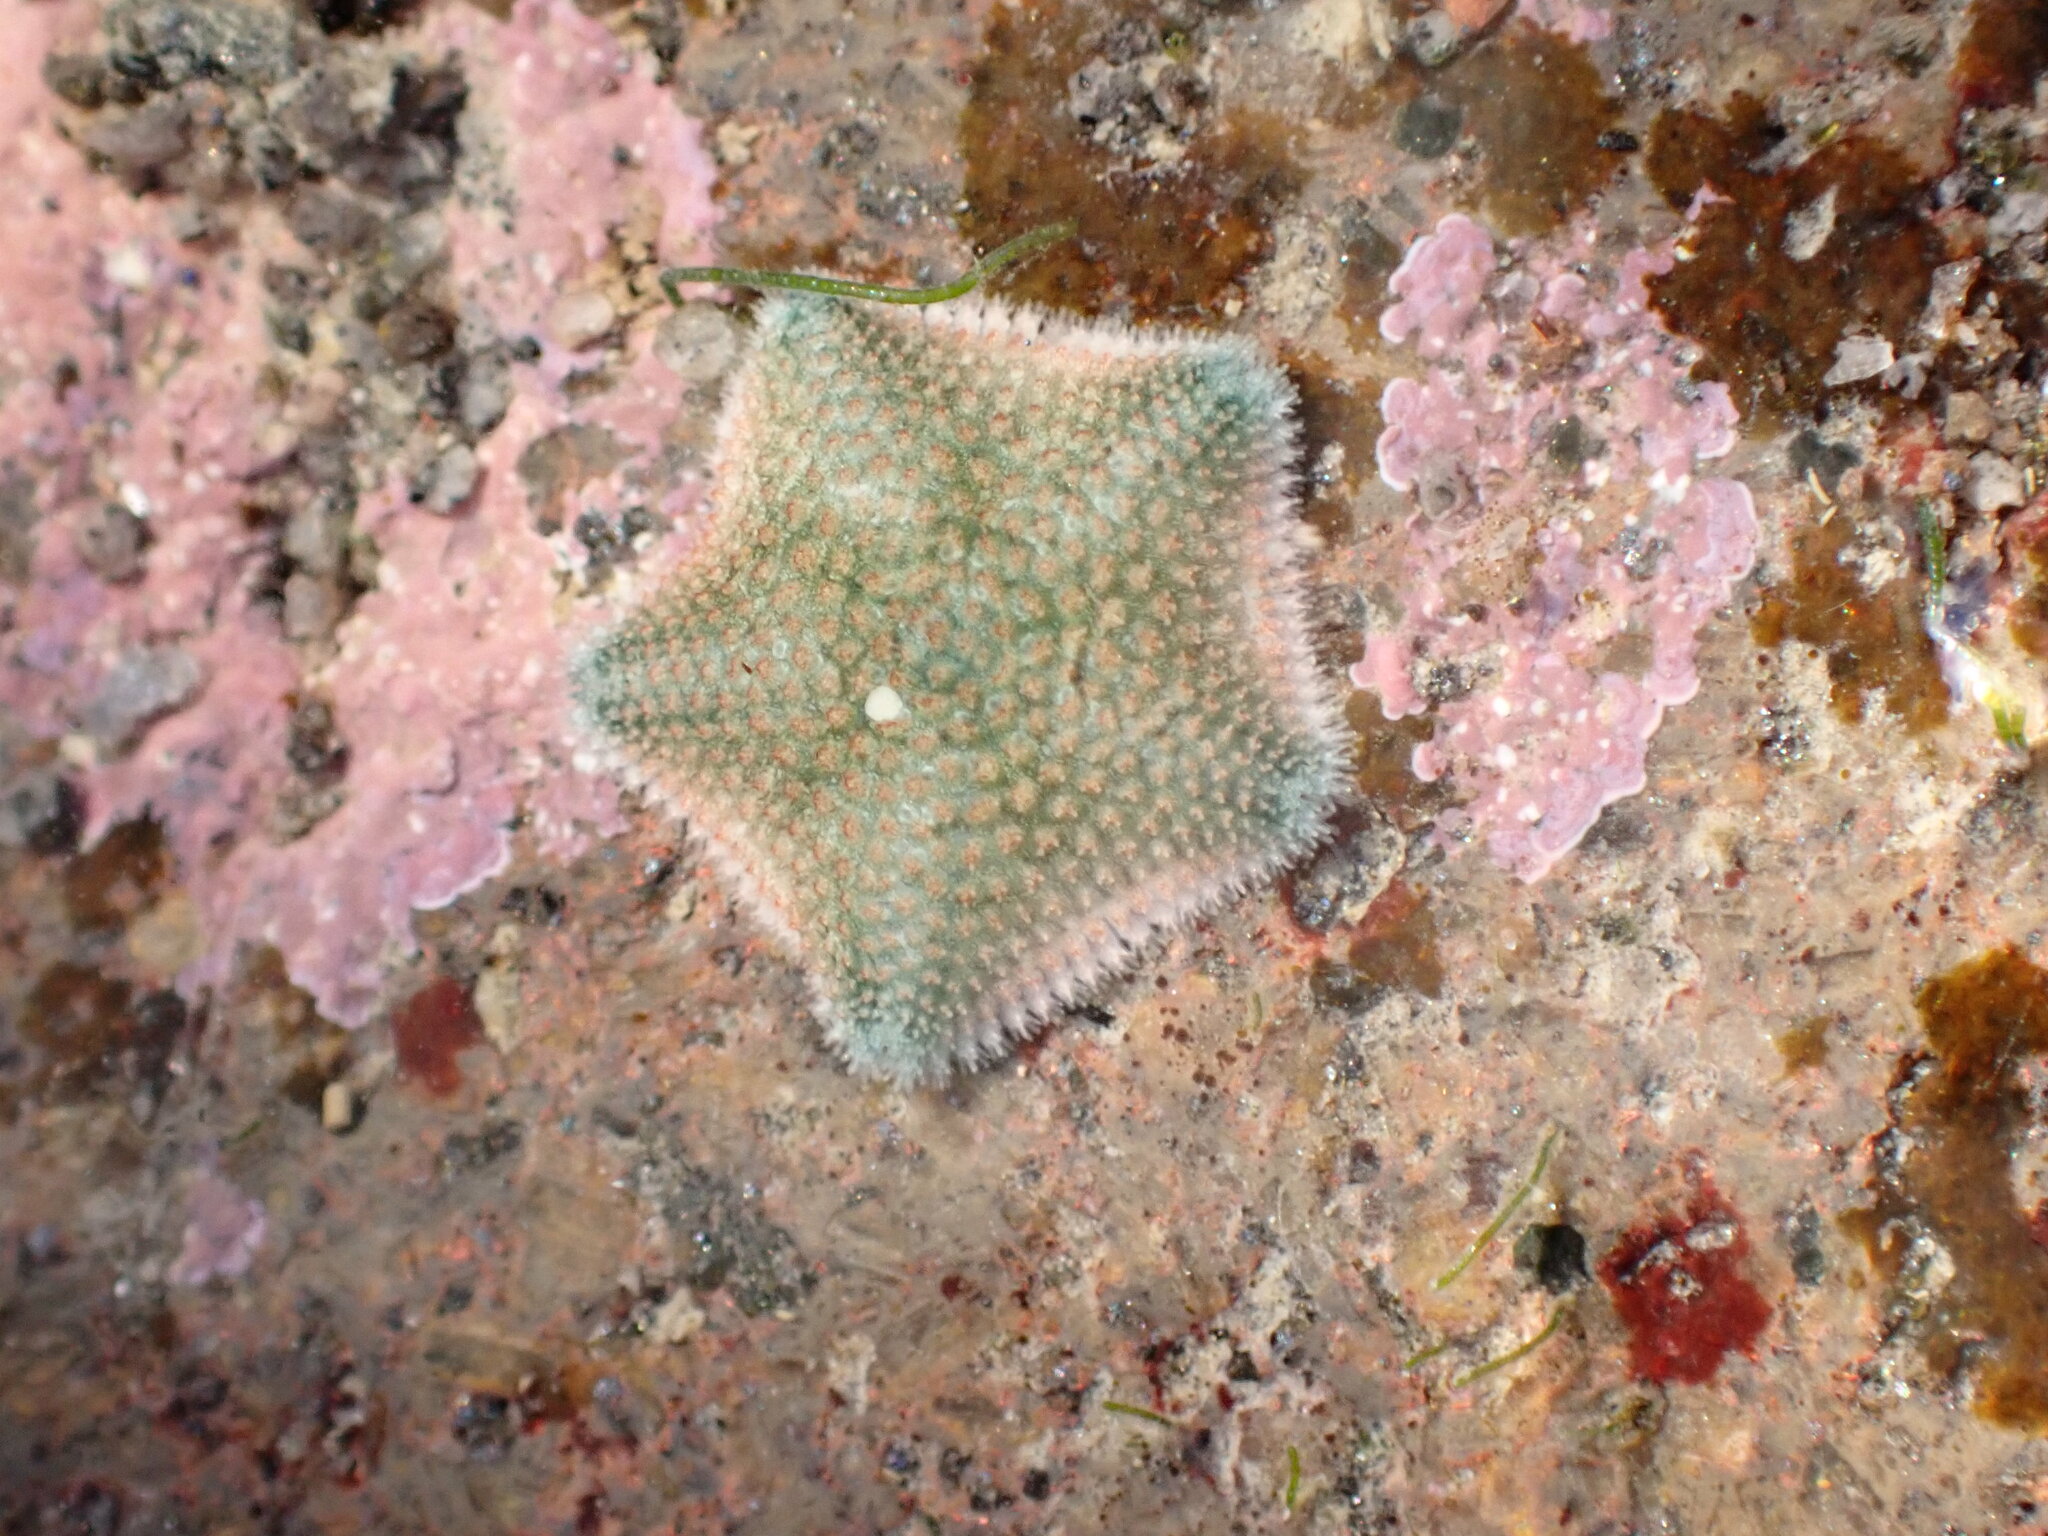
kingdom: Animalia
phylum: Echinodermata
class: Asteroidea
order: Valvatida
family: Asterinidae
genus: Patiriella
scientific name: Patiriella regularis
